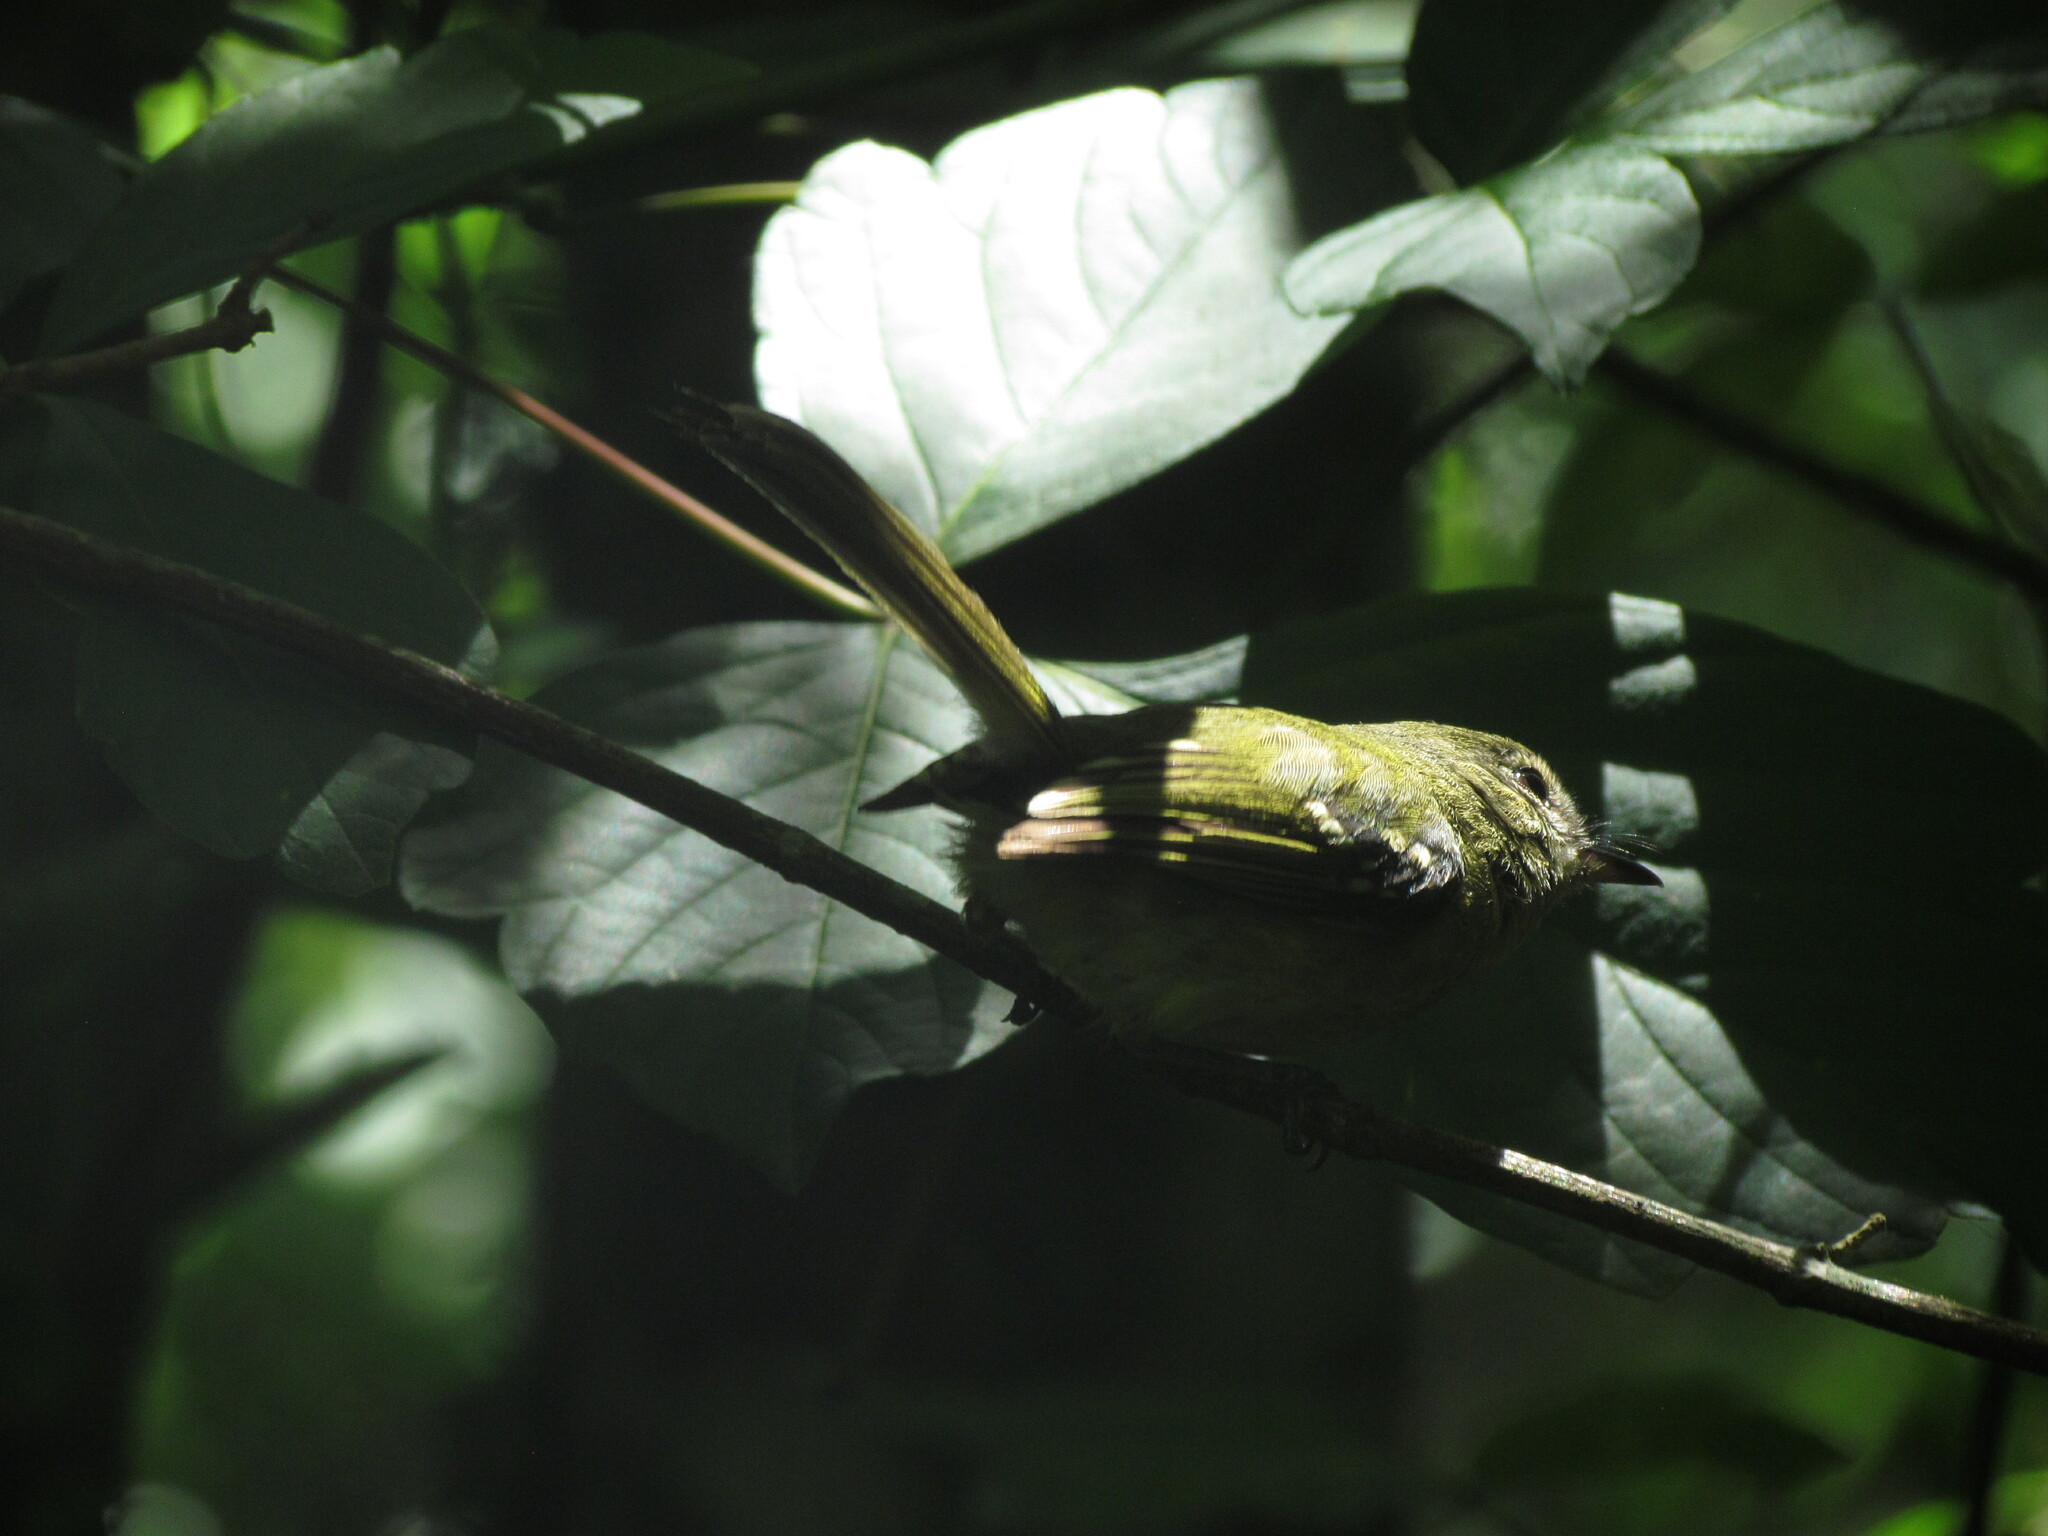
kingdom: Animalia
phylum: Chordata
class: Aves
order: Passeriformes
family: Tyrannidae
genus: Phylloscartes
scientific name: Phylloscartes ventralis
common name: Mottle-cheeked tyrannulet
